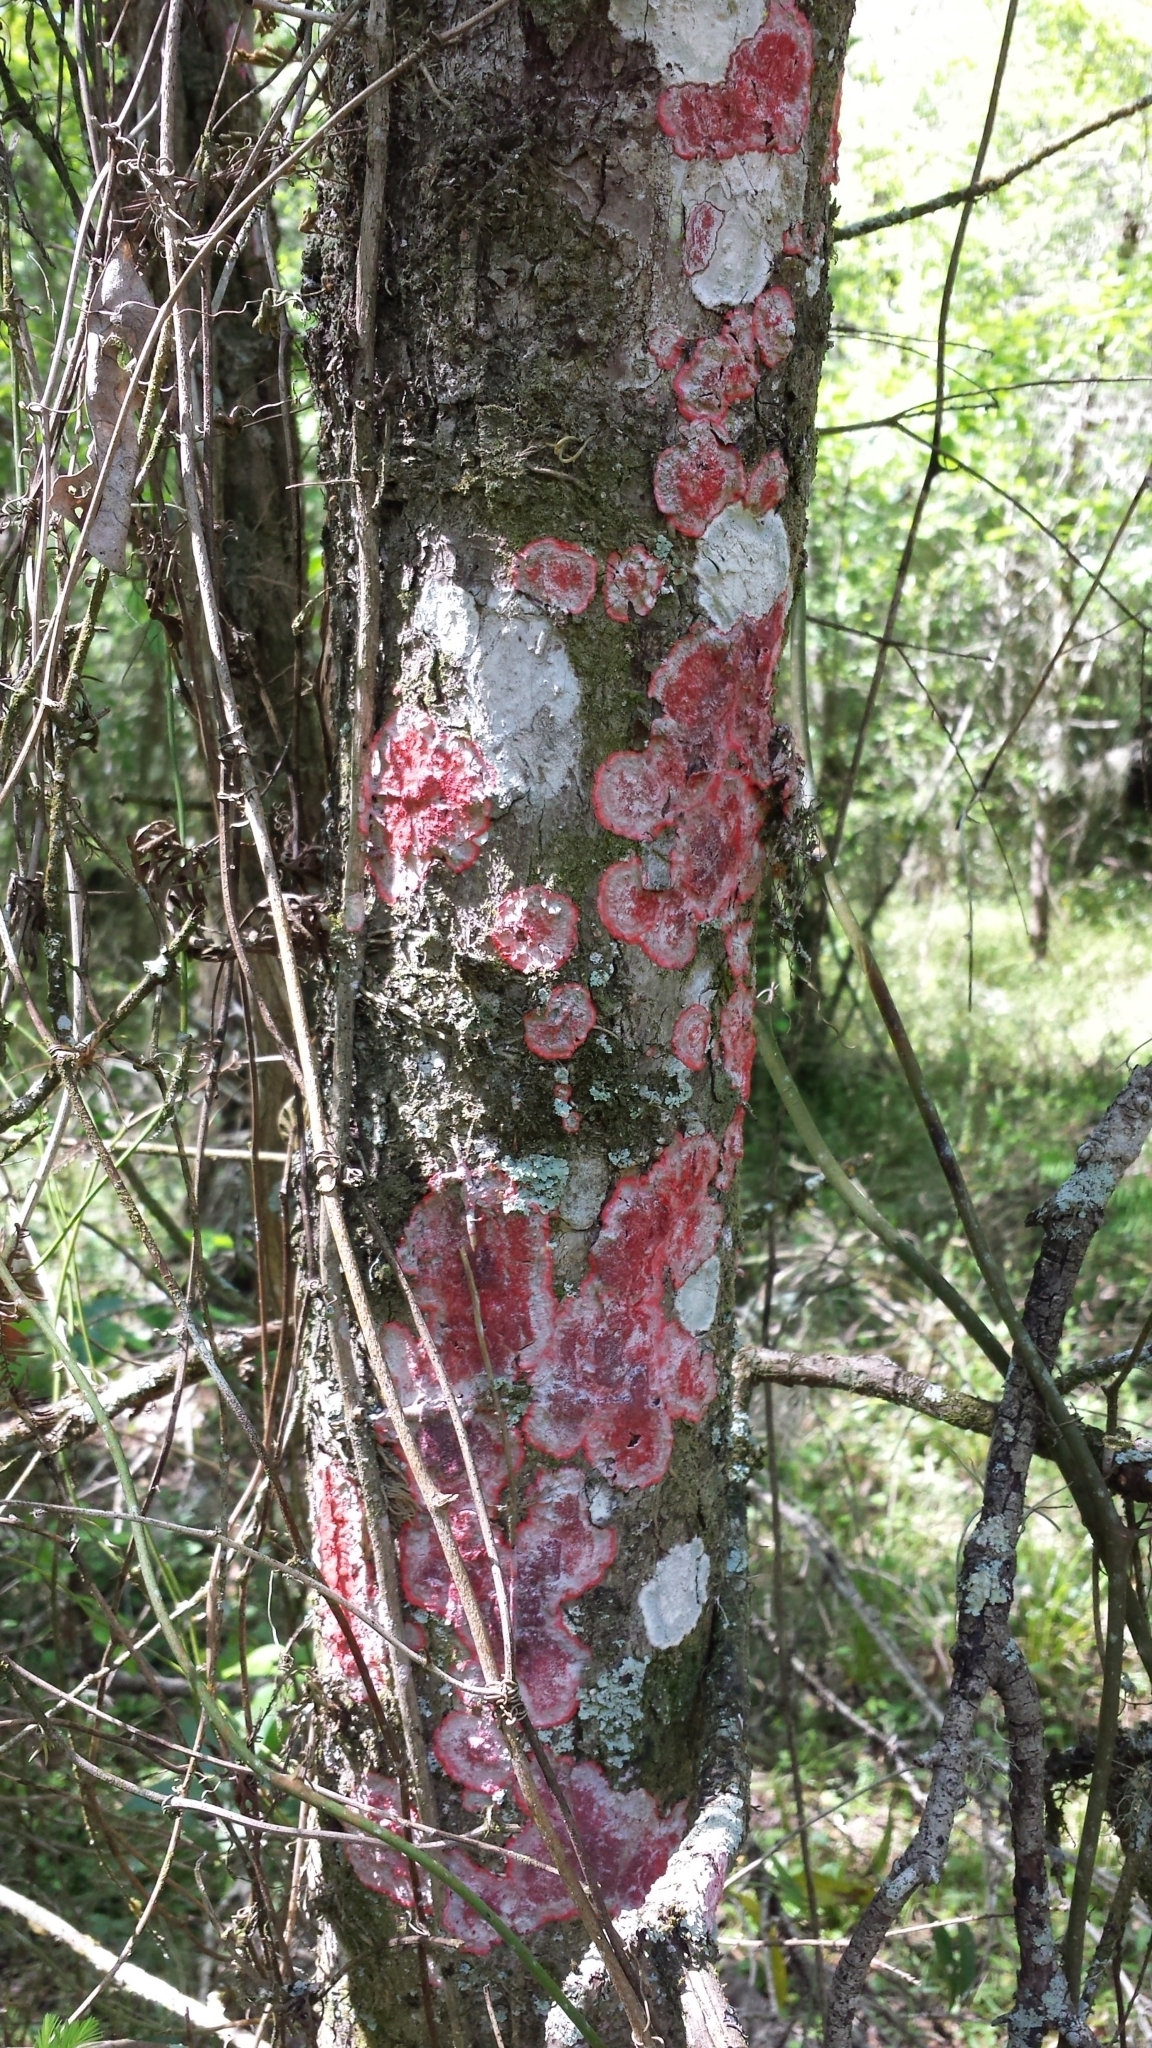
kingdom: Fungi
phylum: Ascomycota
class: Arthoniomycetes
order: Arthoniales
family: Arthoniaceae
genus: Herpothallon
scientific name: Herpothallon rubrocinctum
